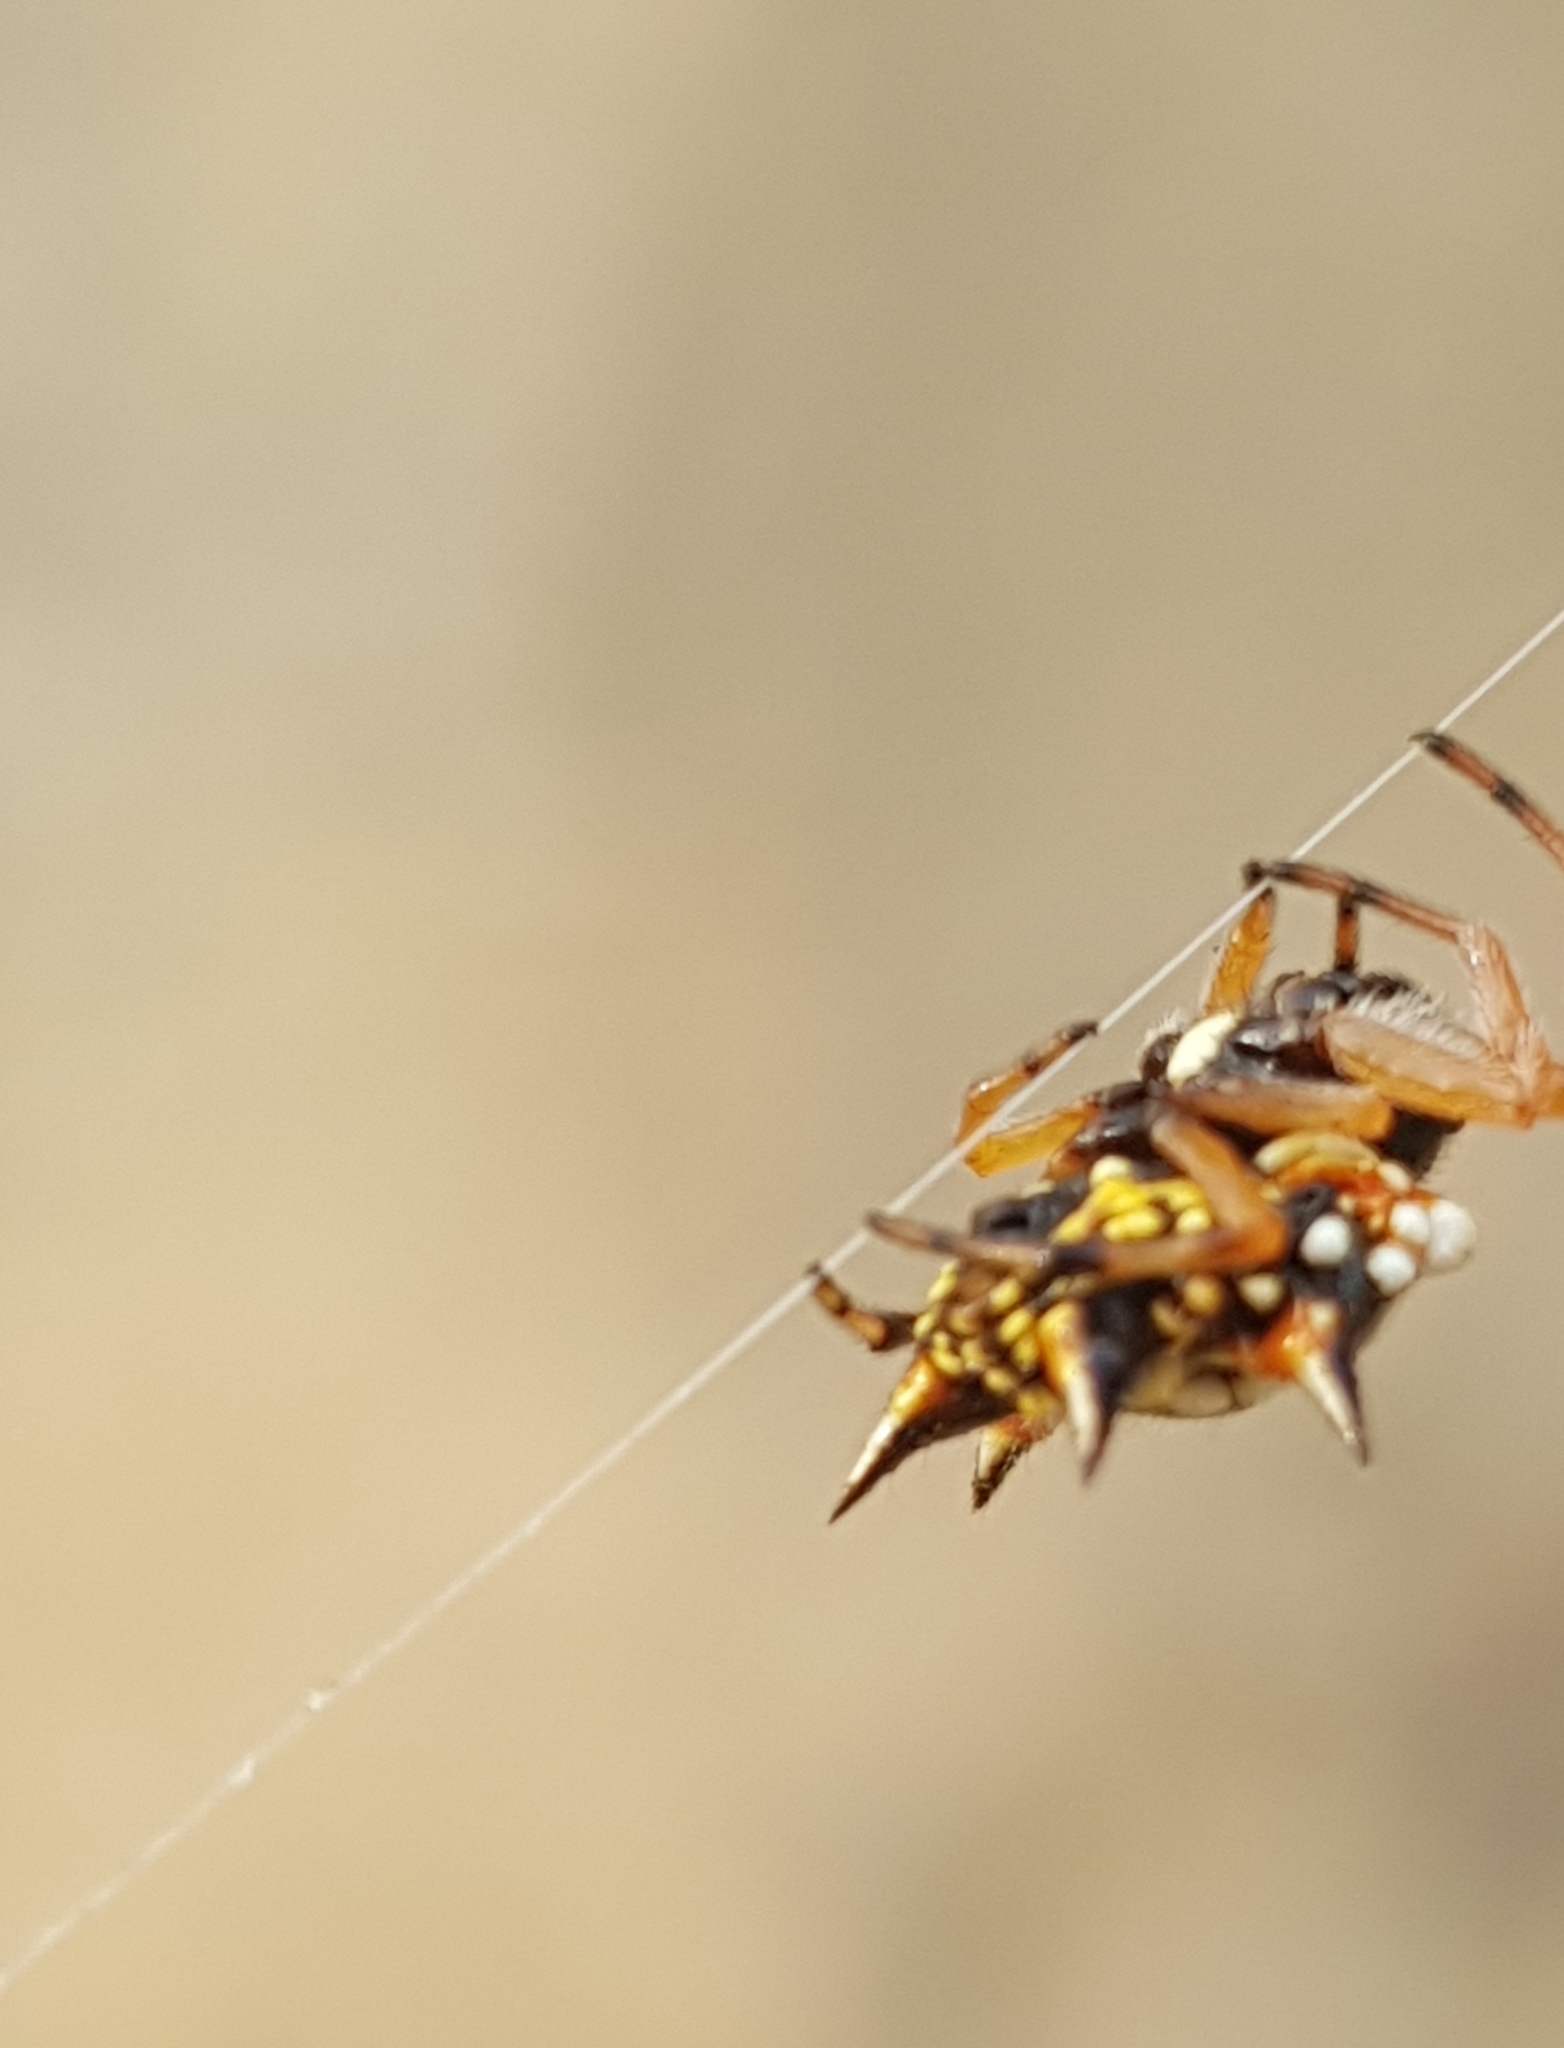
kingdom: Animalia
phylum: Arthropoda
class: Arachnida
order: Araneae
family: Araneidae
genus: Austracantha
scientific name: Austracantha minax
